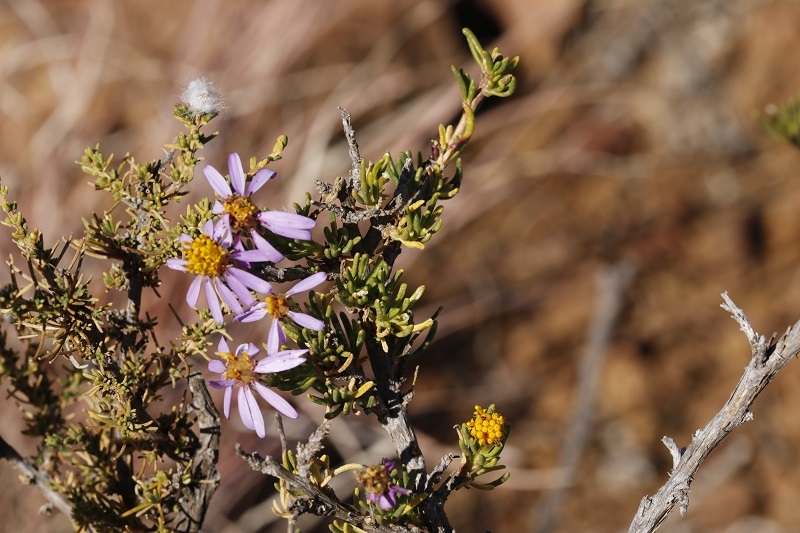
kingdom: Plantae
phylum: Tracheophyta
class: Magnoliopsida
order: Asterales
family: Asteraceae
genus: Felicia
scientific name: Felicia filifolia
